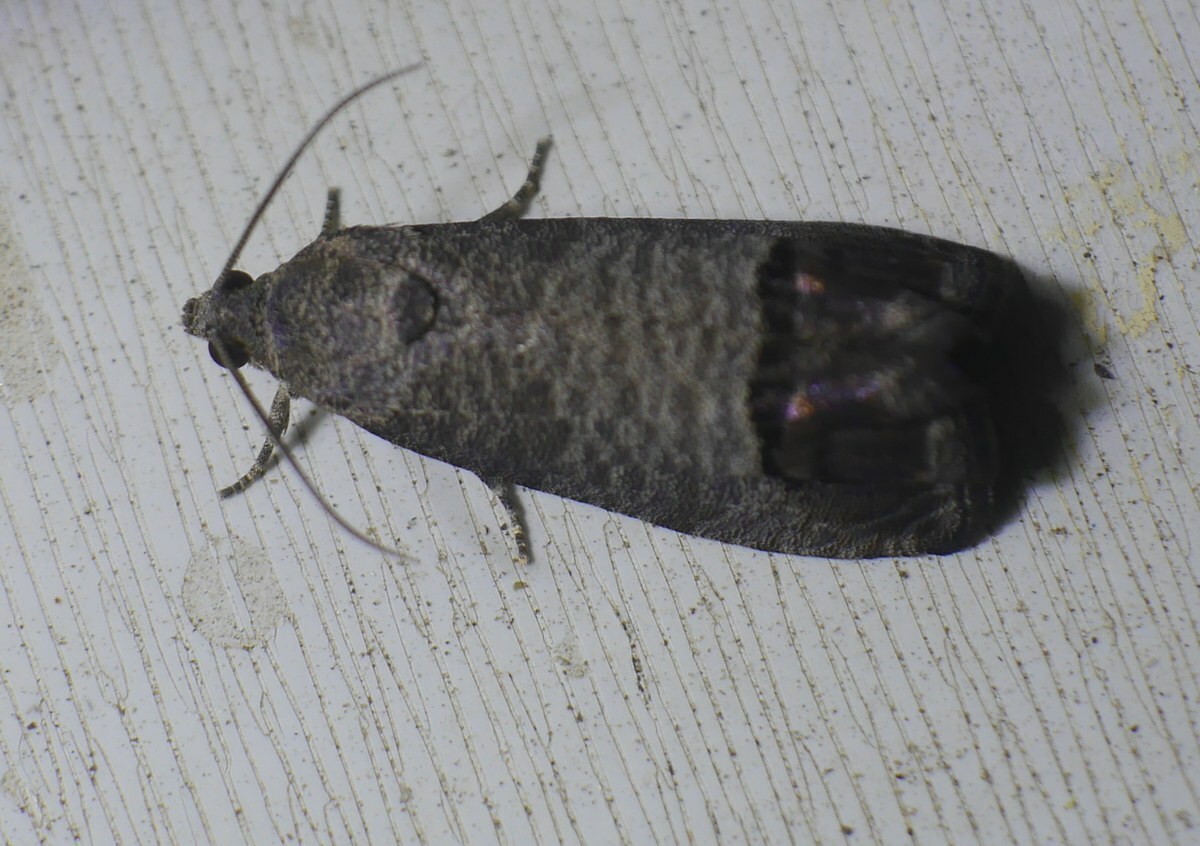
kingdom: Animalia
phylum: Arthropoda
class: Insecta
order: Lepidoptera
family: Tortricidae
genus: Cydia
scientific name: Cydia pomonella
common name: Codling moth
